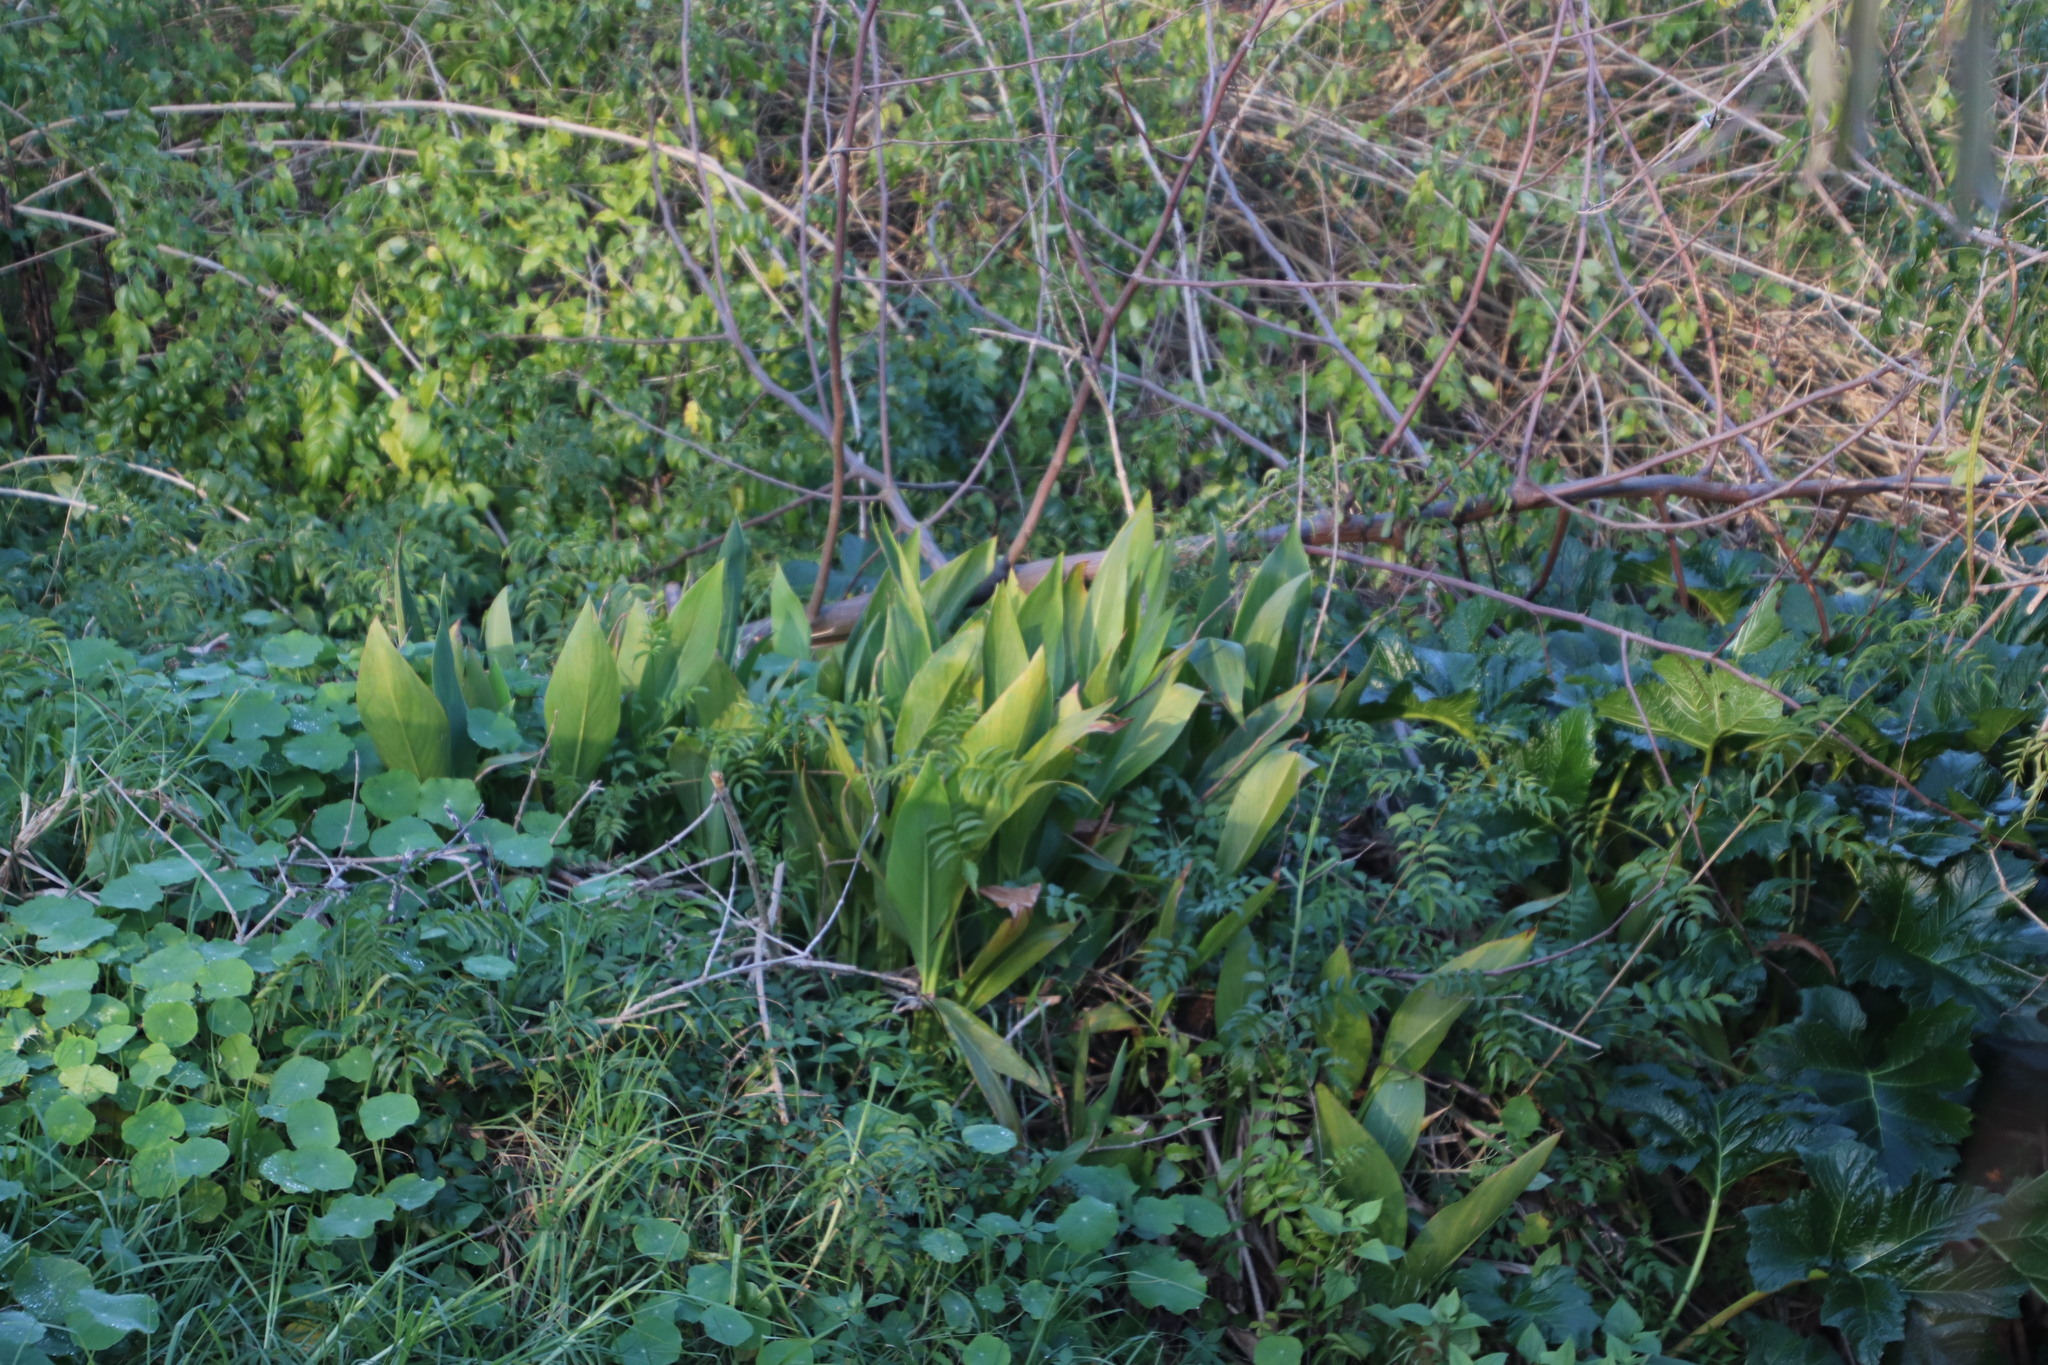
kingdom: Plantae
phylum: Tracheophyta
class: Liliopsida
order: Zingiberales
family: Cannaceae
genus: Canna
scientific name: Canna indica
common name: Indian shot
